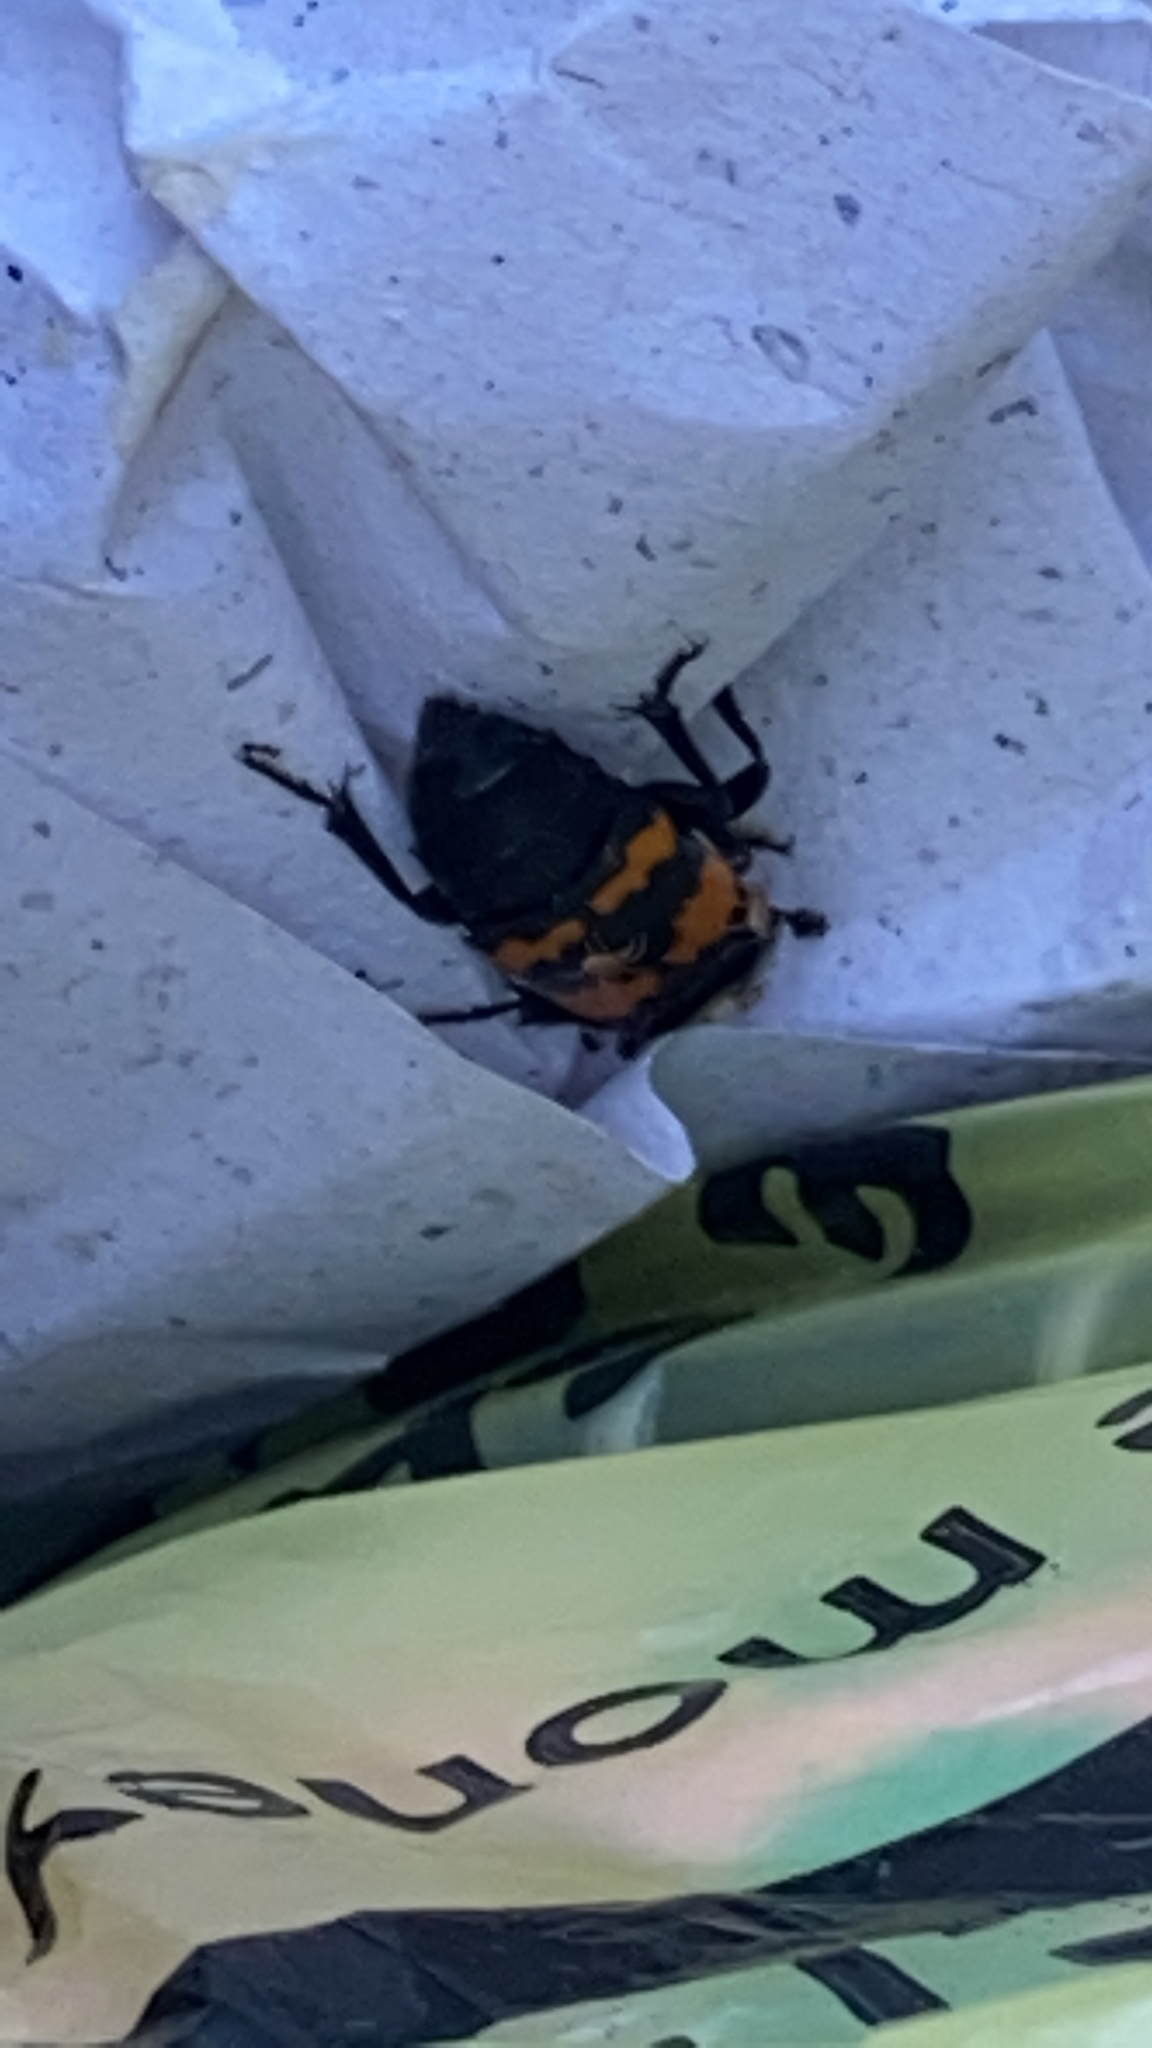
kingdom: Animalia
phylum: Arthropoda
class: Insecta
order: Coleoptera
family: Staphylinidae
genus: Nicrophorus
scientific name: Nicrophorus tomentosus
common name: Tomentose burying beetle
